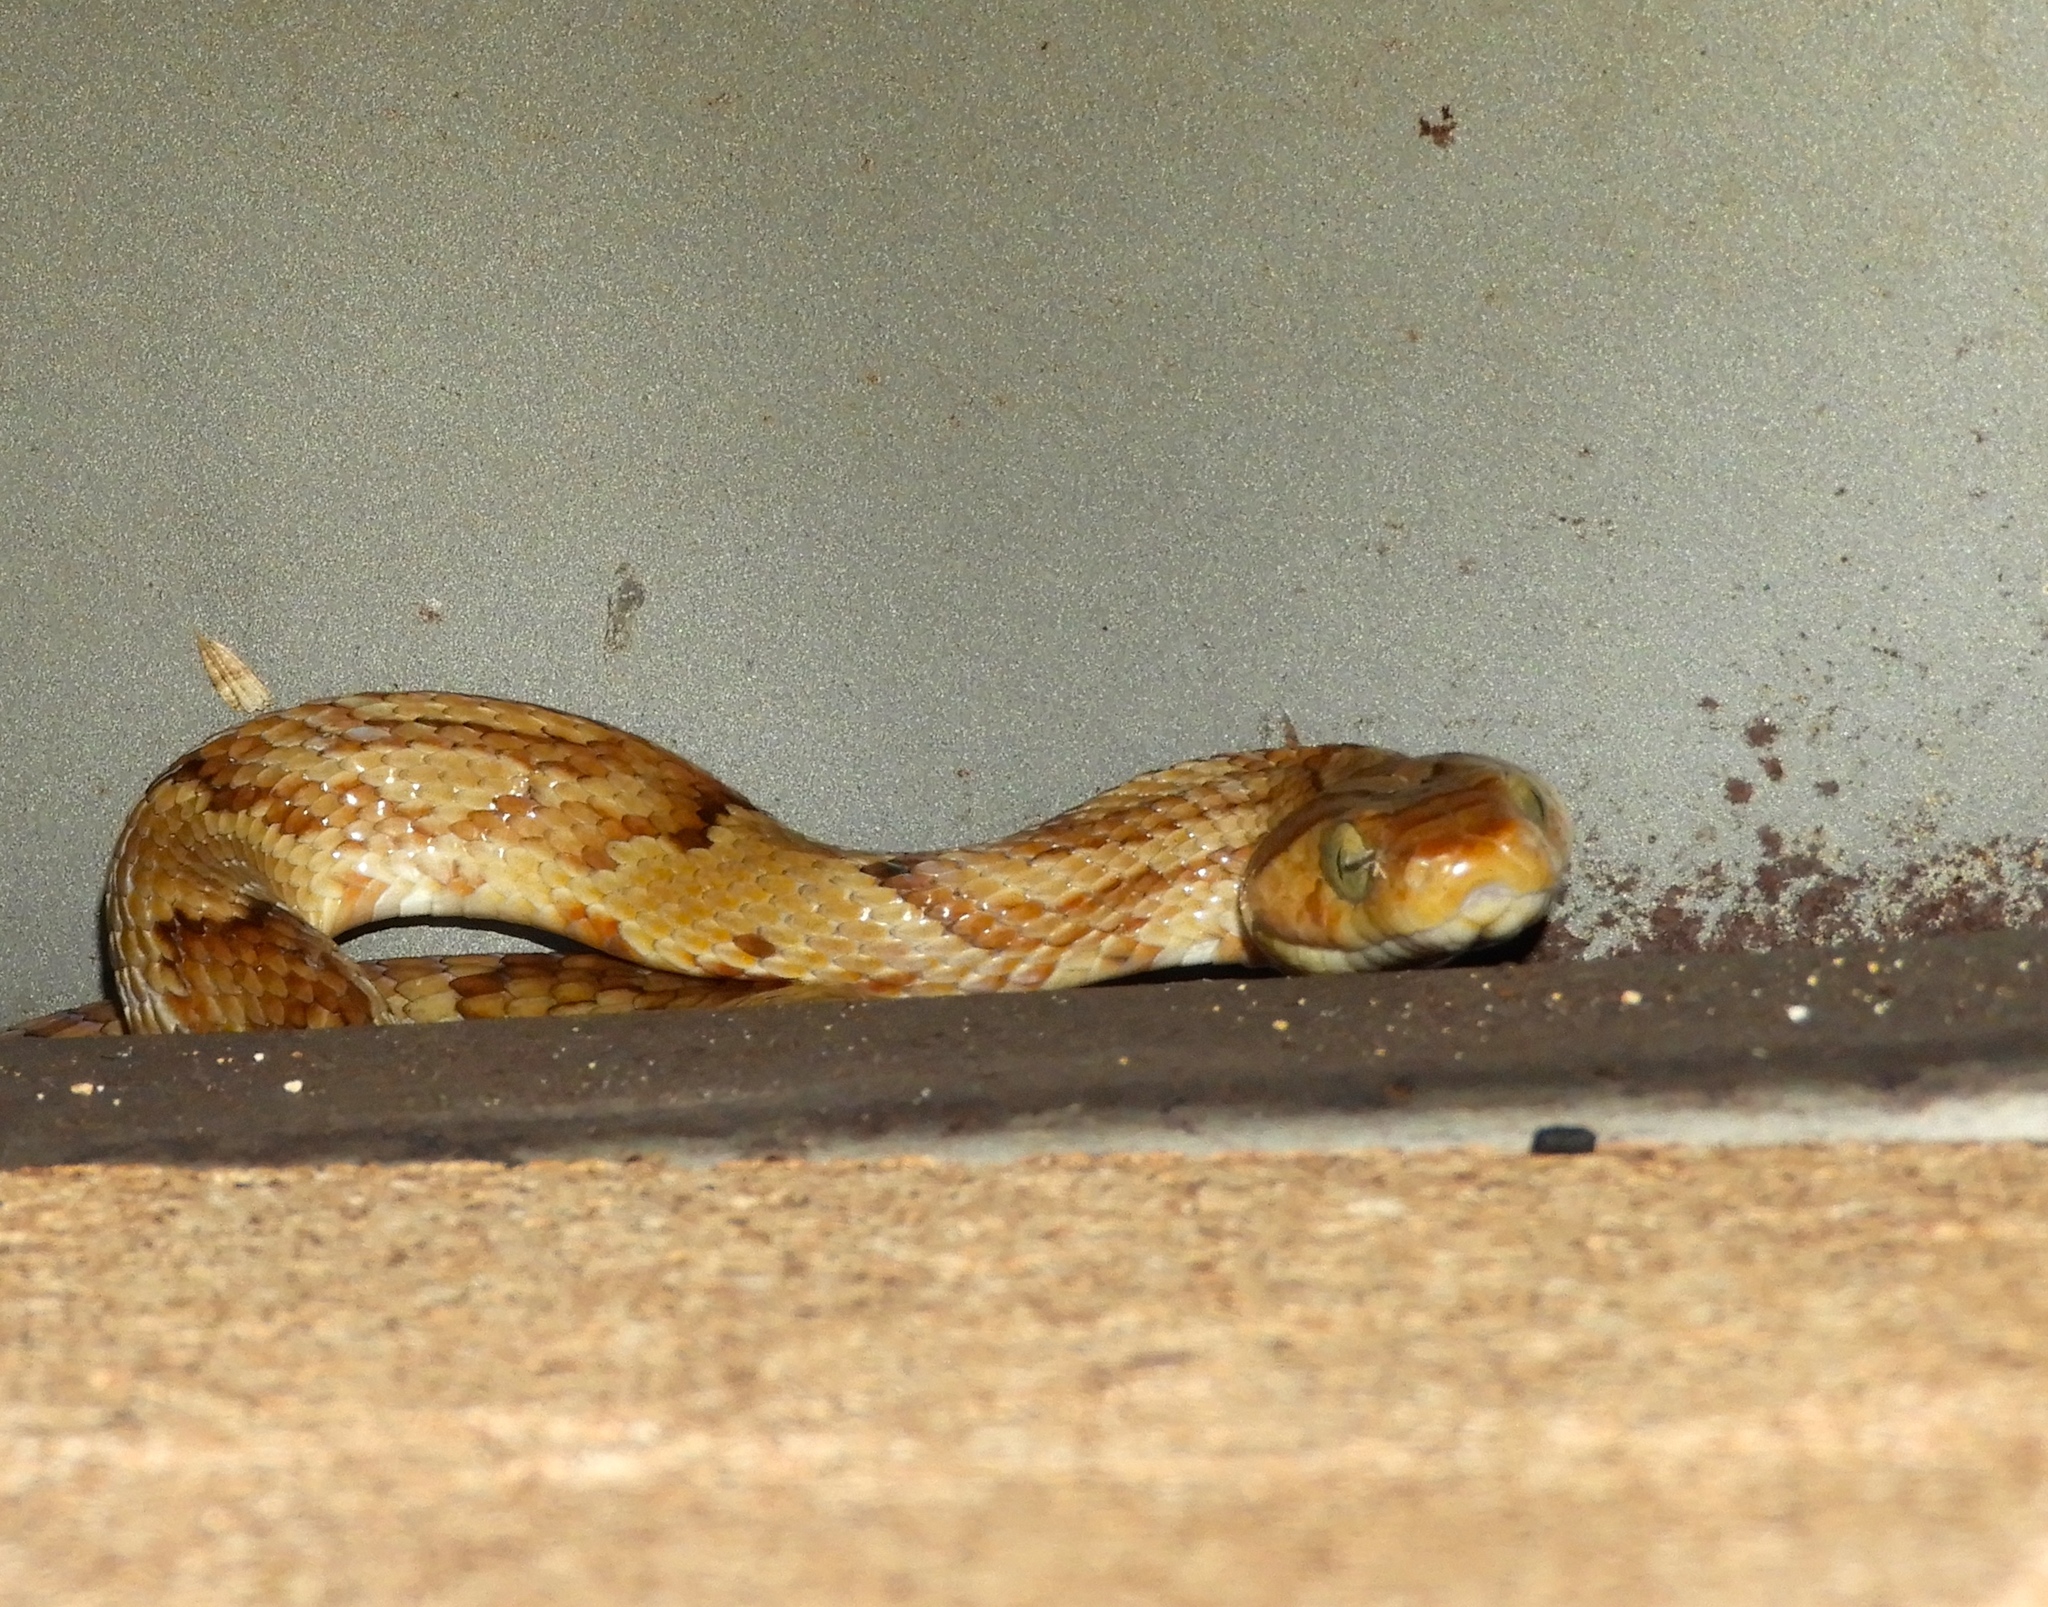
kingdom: Animalia
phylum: Chordata
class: Squamata
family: Colubridae
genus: Trimorphodon
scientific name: Trimorphodon paucimaculatus
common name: Sinaloan lyresnake
